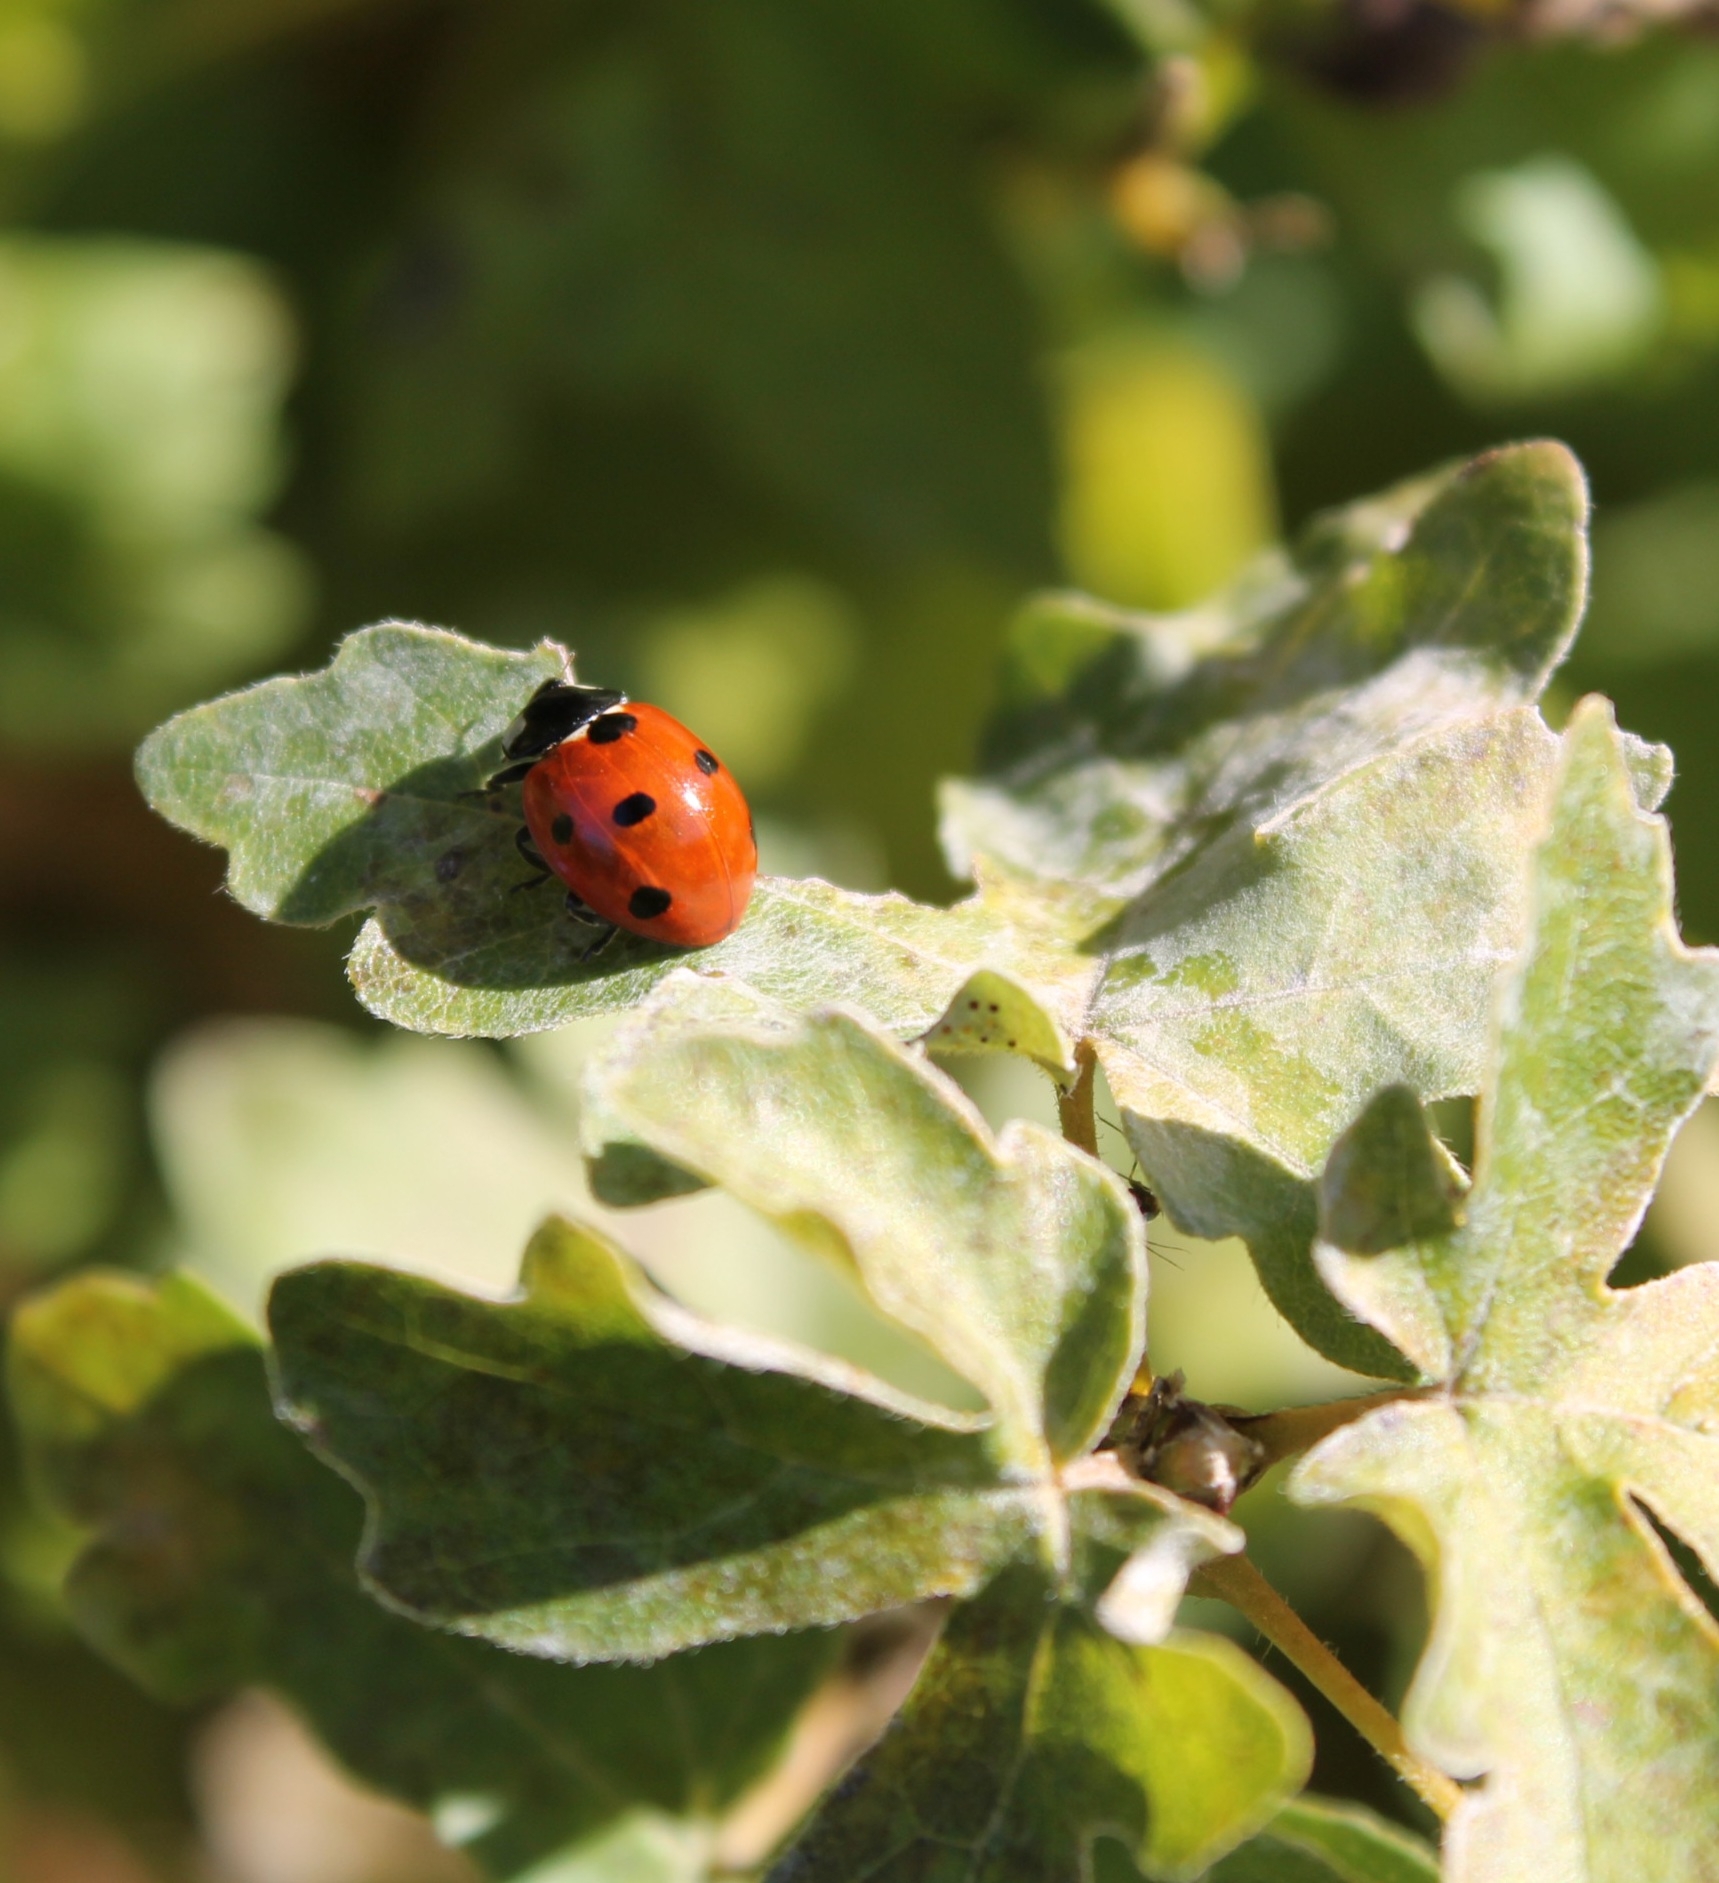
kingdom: Animalia
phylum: Arthropoda
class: Insecta
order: Coleoptera
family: Coccinellidae
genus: Coccinella
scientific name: Coccinella septempunctata
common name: Sevenspotted lady beetle
